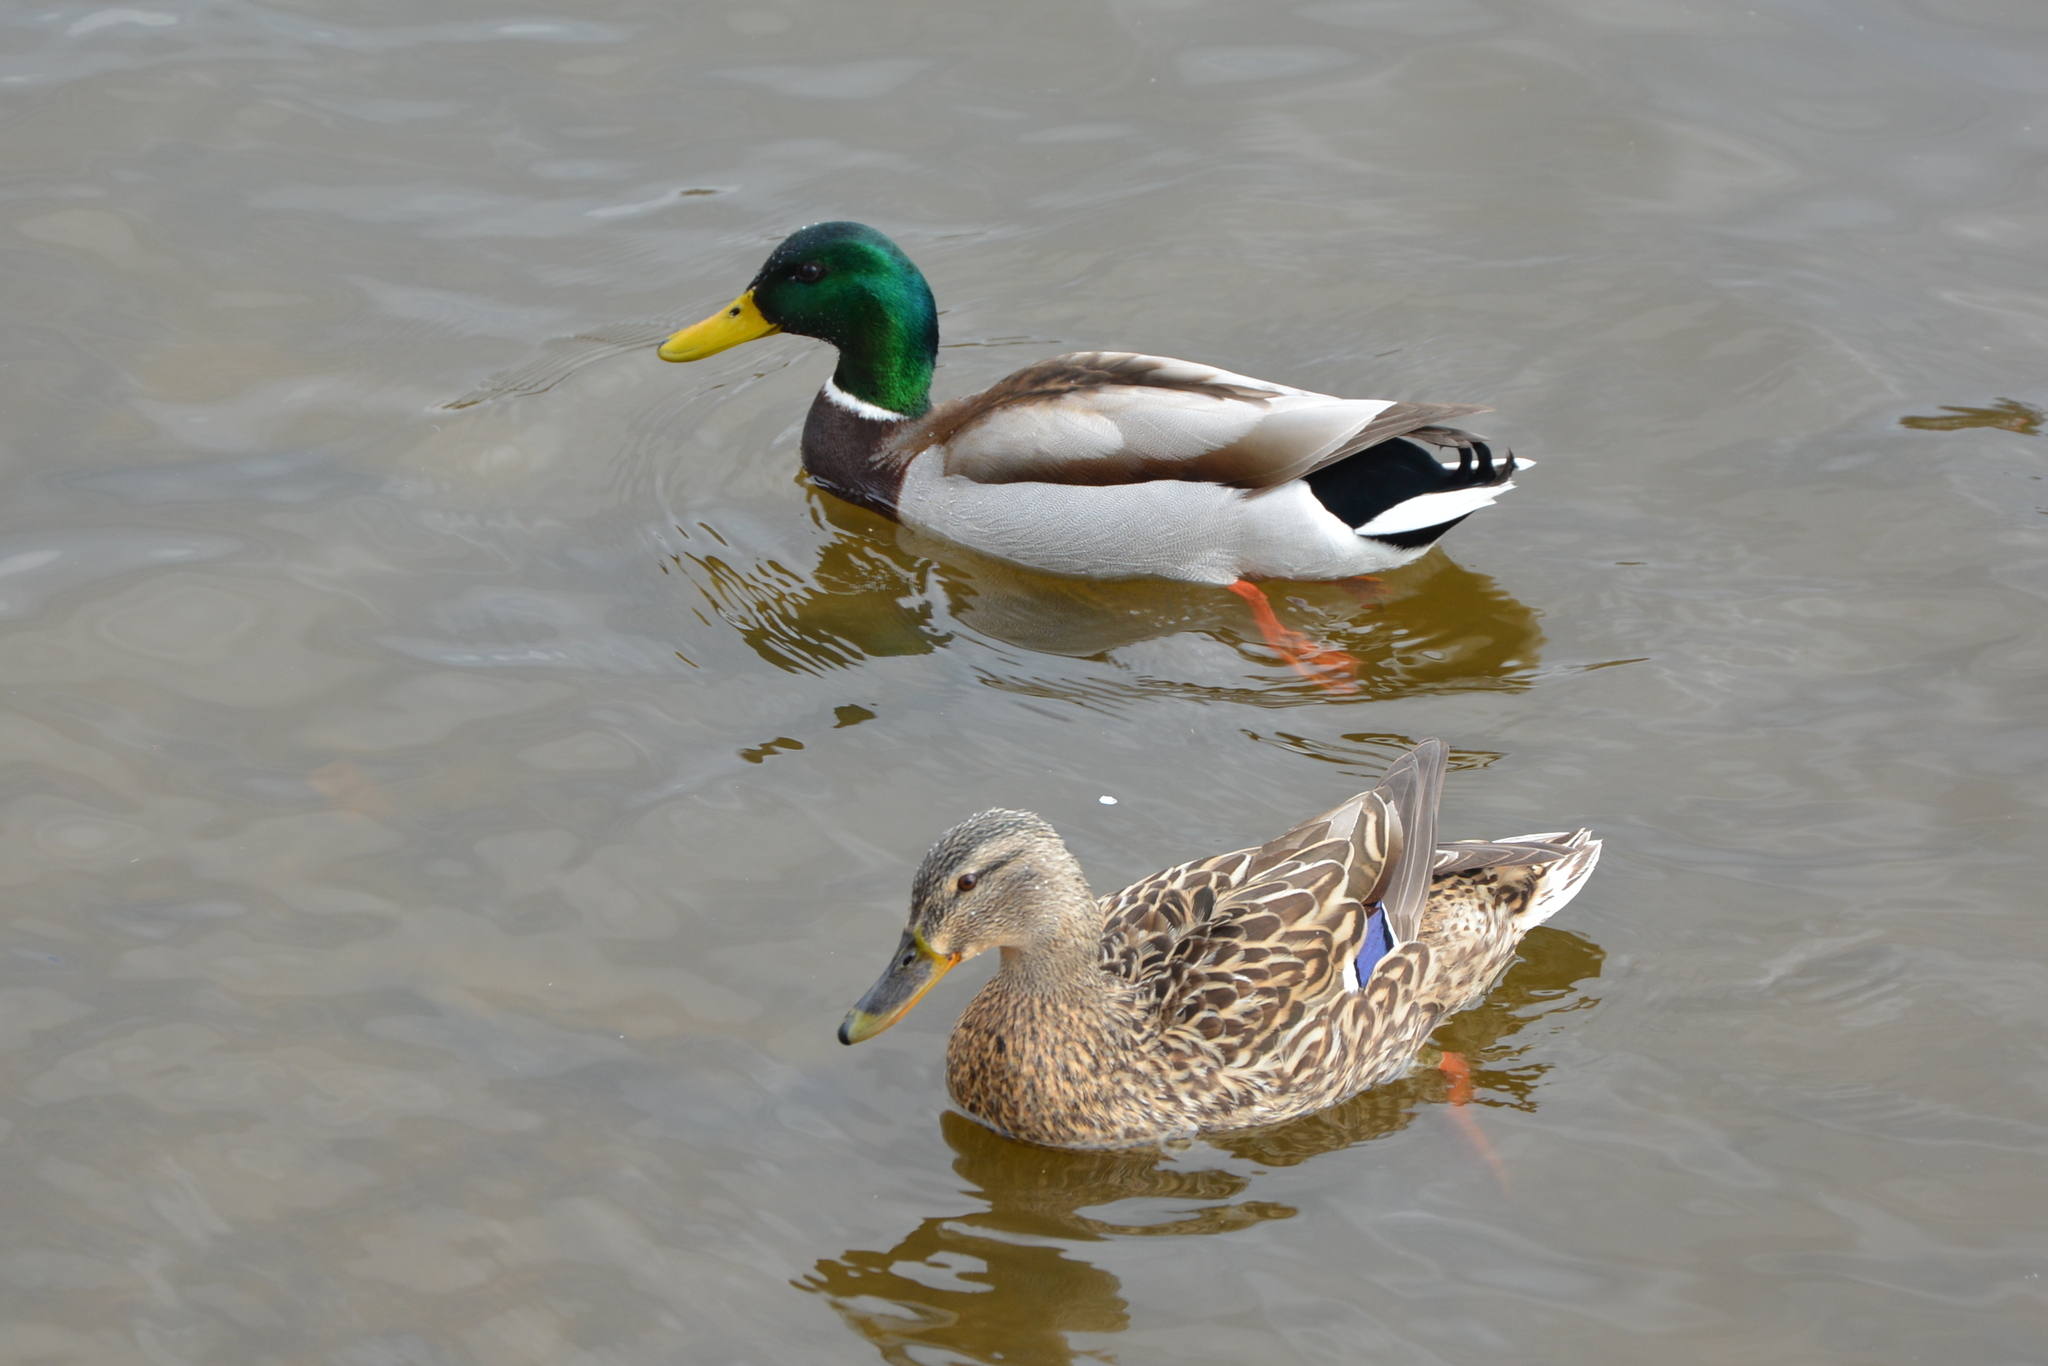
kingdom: Animalia
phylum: Chordata
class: Aves
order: Anseriformes
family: Anatidae
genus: Anas
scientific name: Anas platyrhynchos
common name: Mallard
